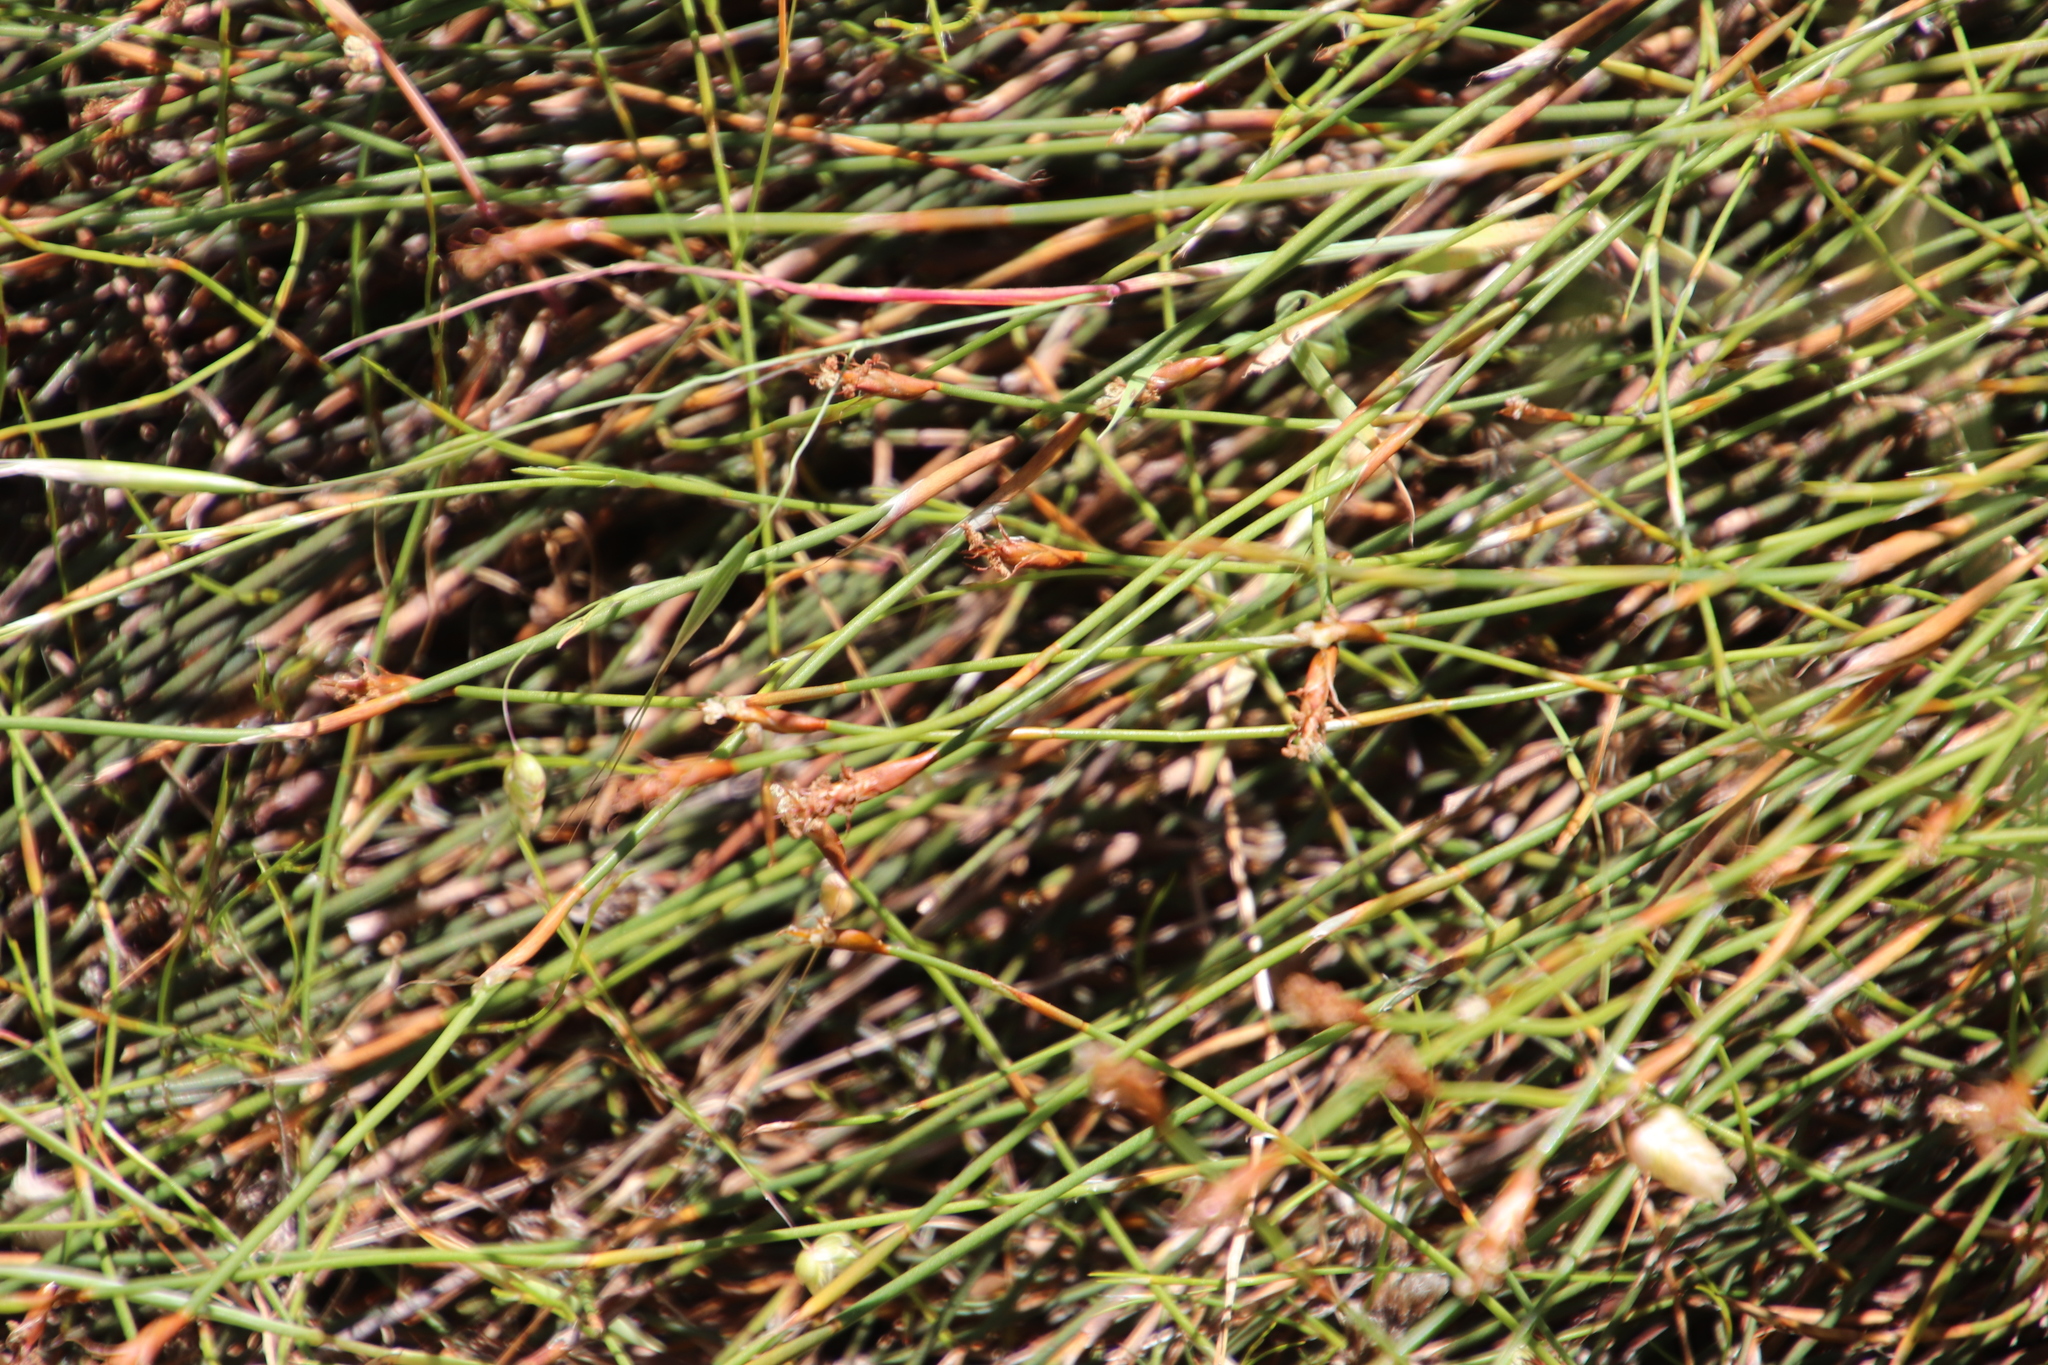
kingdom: Plantae
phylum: Tracheophyta
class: Liliopsida
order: Poales
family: Restionaceae
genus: Restio
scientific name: Restio capensis
